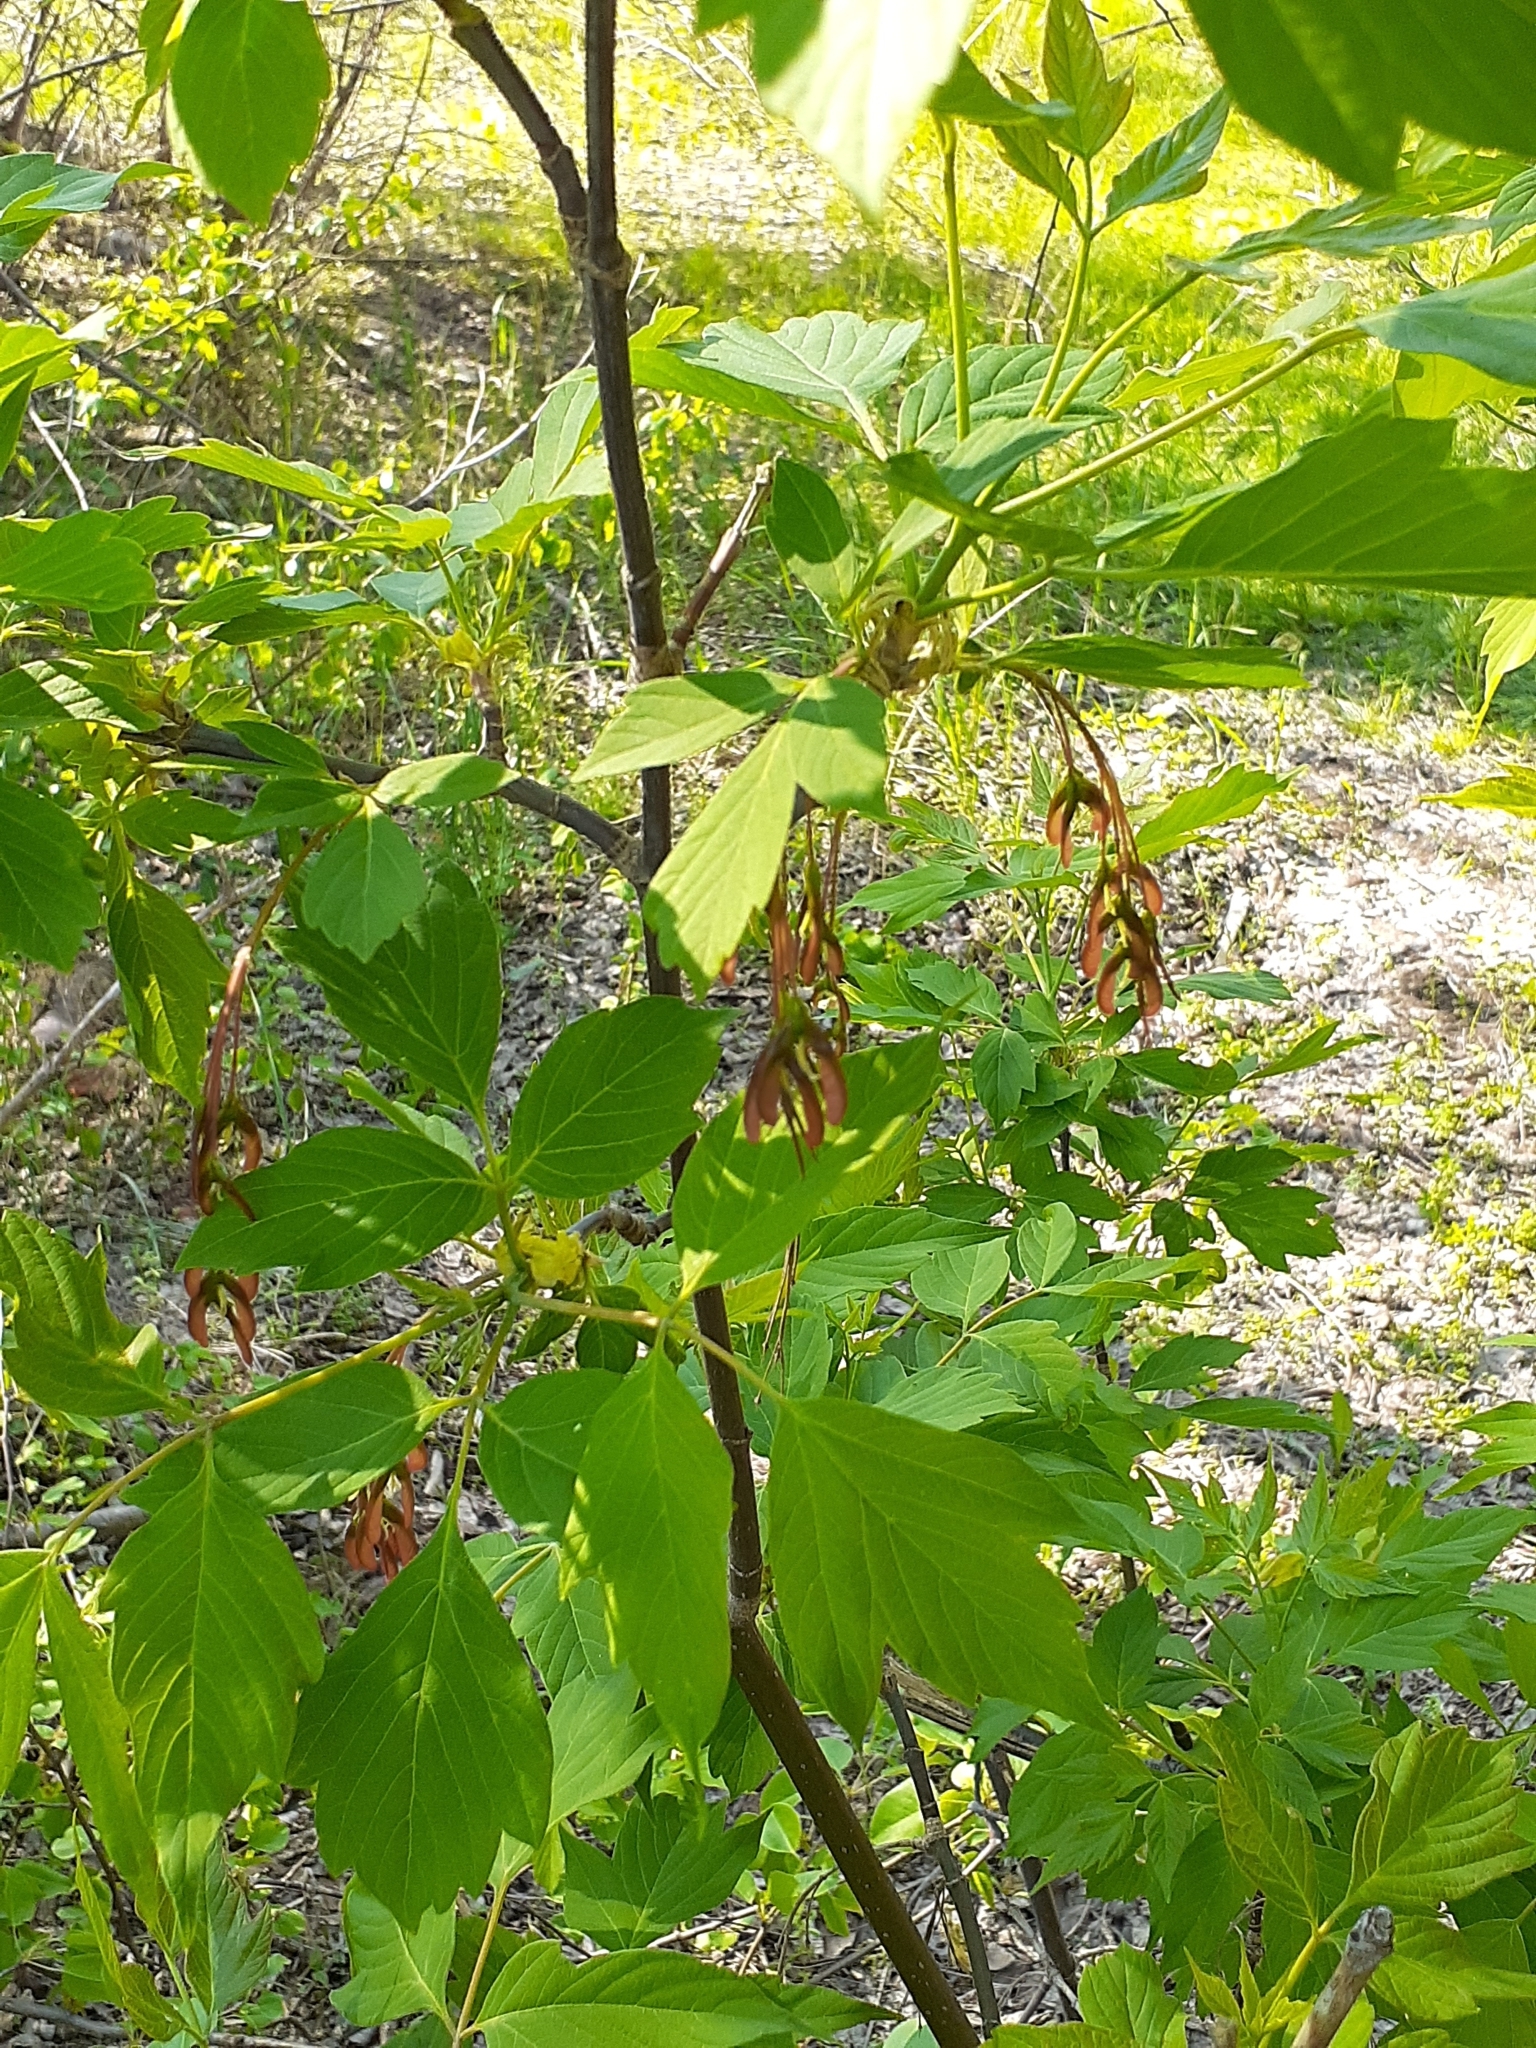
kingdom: Plantae
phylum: Tracheophyta
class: Magnoliopsida
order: Sapindales
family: Sapindaceae
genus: Acer
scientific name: Acer negundo
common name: Ashleaf maple
